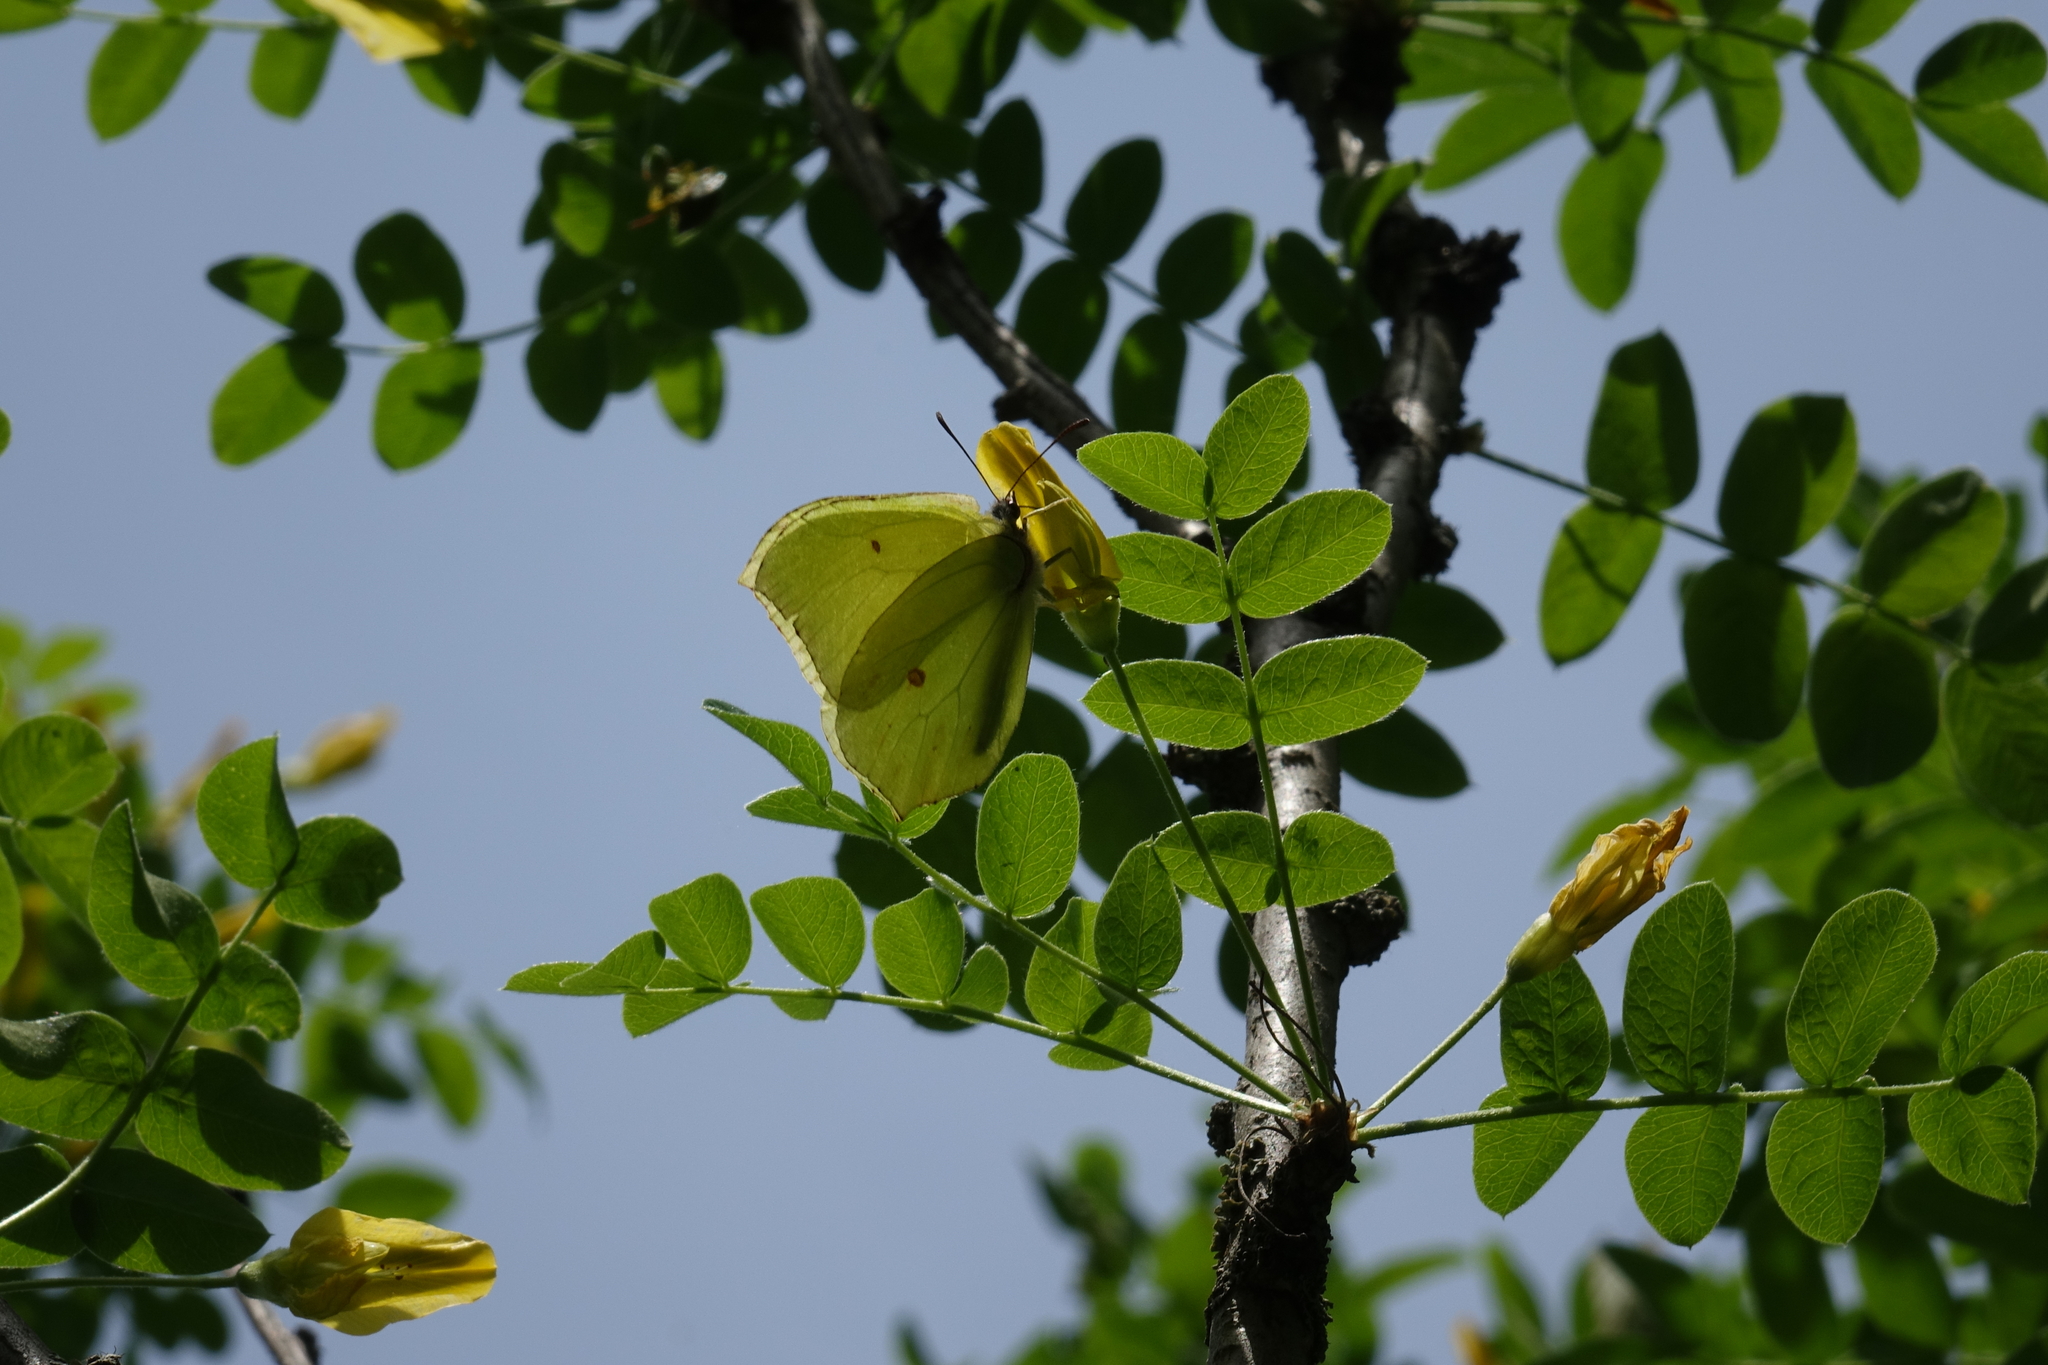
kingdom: Animalia
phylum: Arthropoda
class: Insecta
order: Lepidoptera
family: Pieridae
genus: Gonepteryx
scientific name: Gonepteryx rhamni
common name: Brimstone
